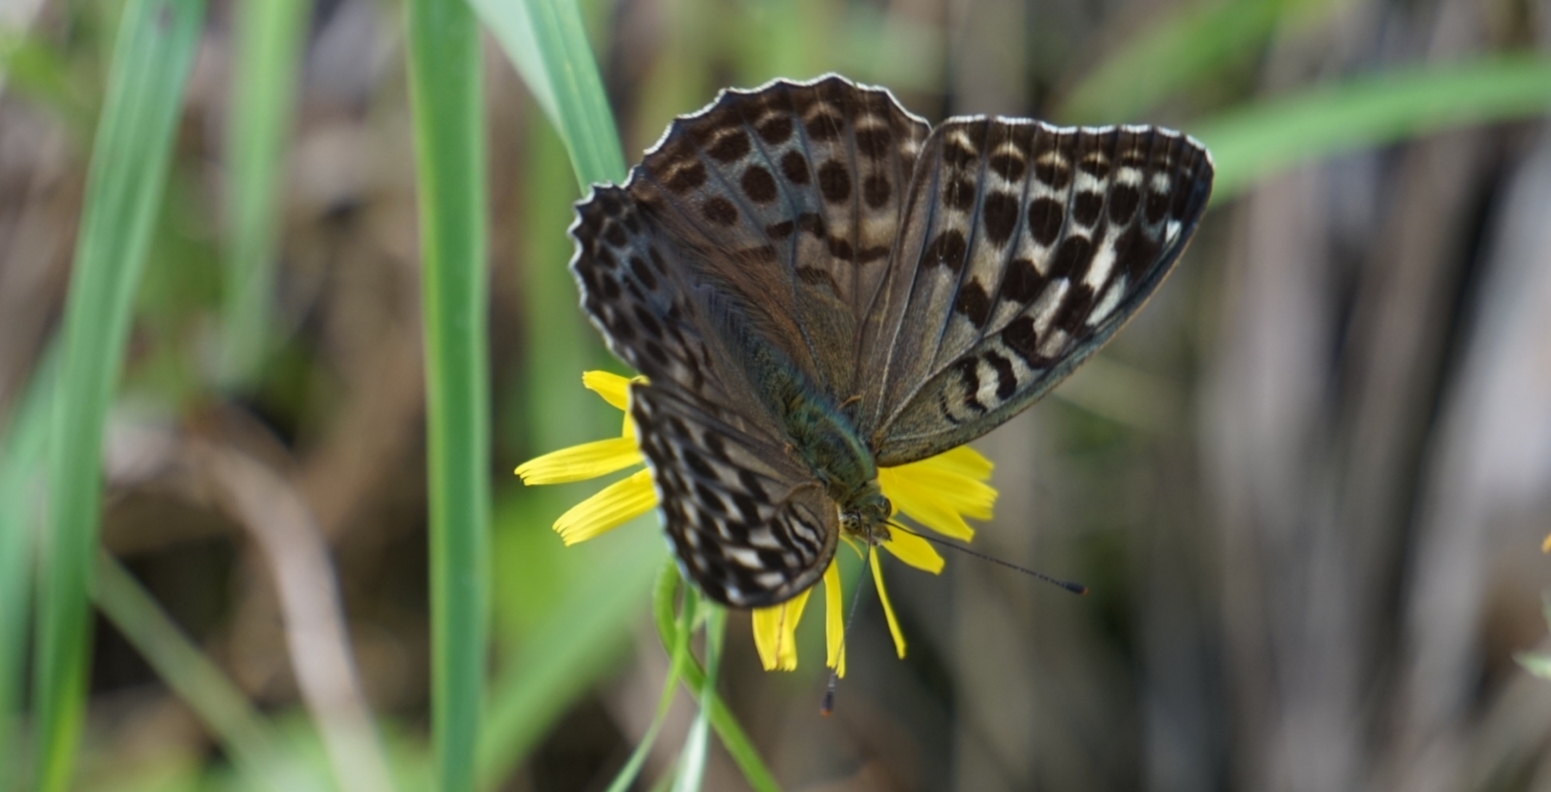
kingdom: Animalia
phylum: Arthropoda
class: Insecta
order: Lepidoptera
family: Nymphalidae
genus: Argynnis
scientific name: Argynnis paphia
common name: Silver-washed fritillary
